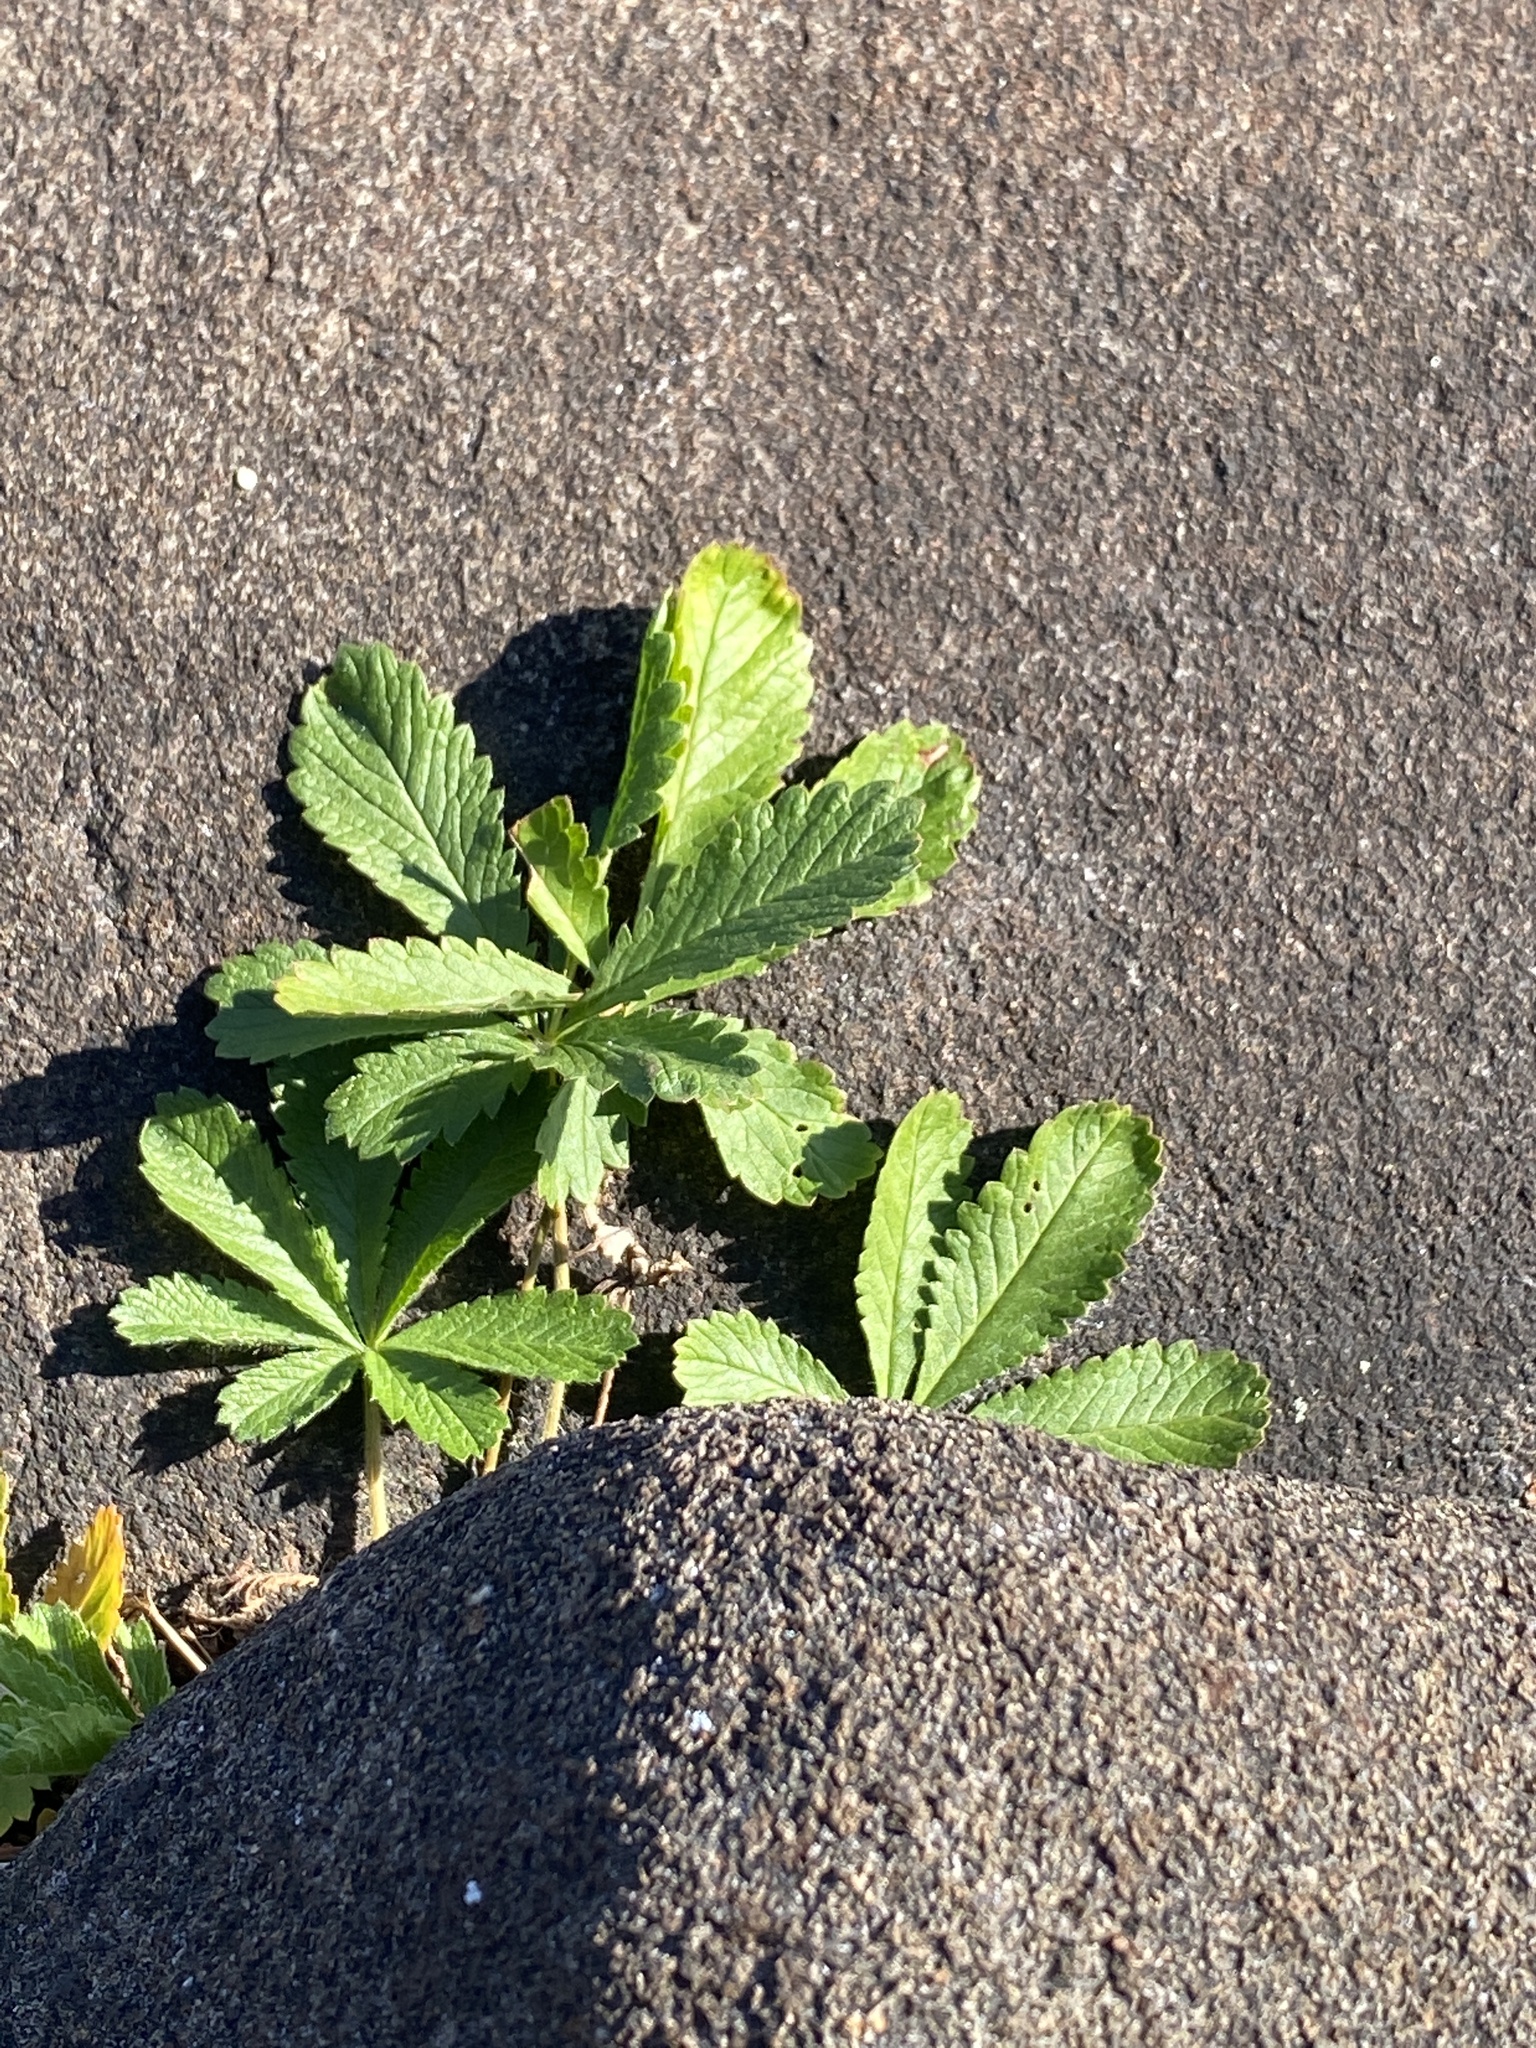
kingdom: Plantae
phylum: Tracheophyta
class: Magnoliopsida
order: Rosales
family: Rosaceae
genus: Potentilla
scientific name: Potentilla recta
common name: Sulphur cinquefoil
